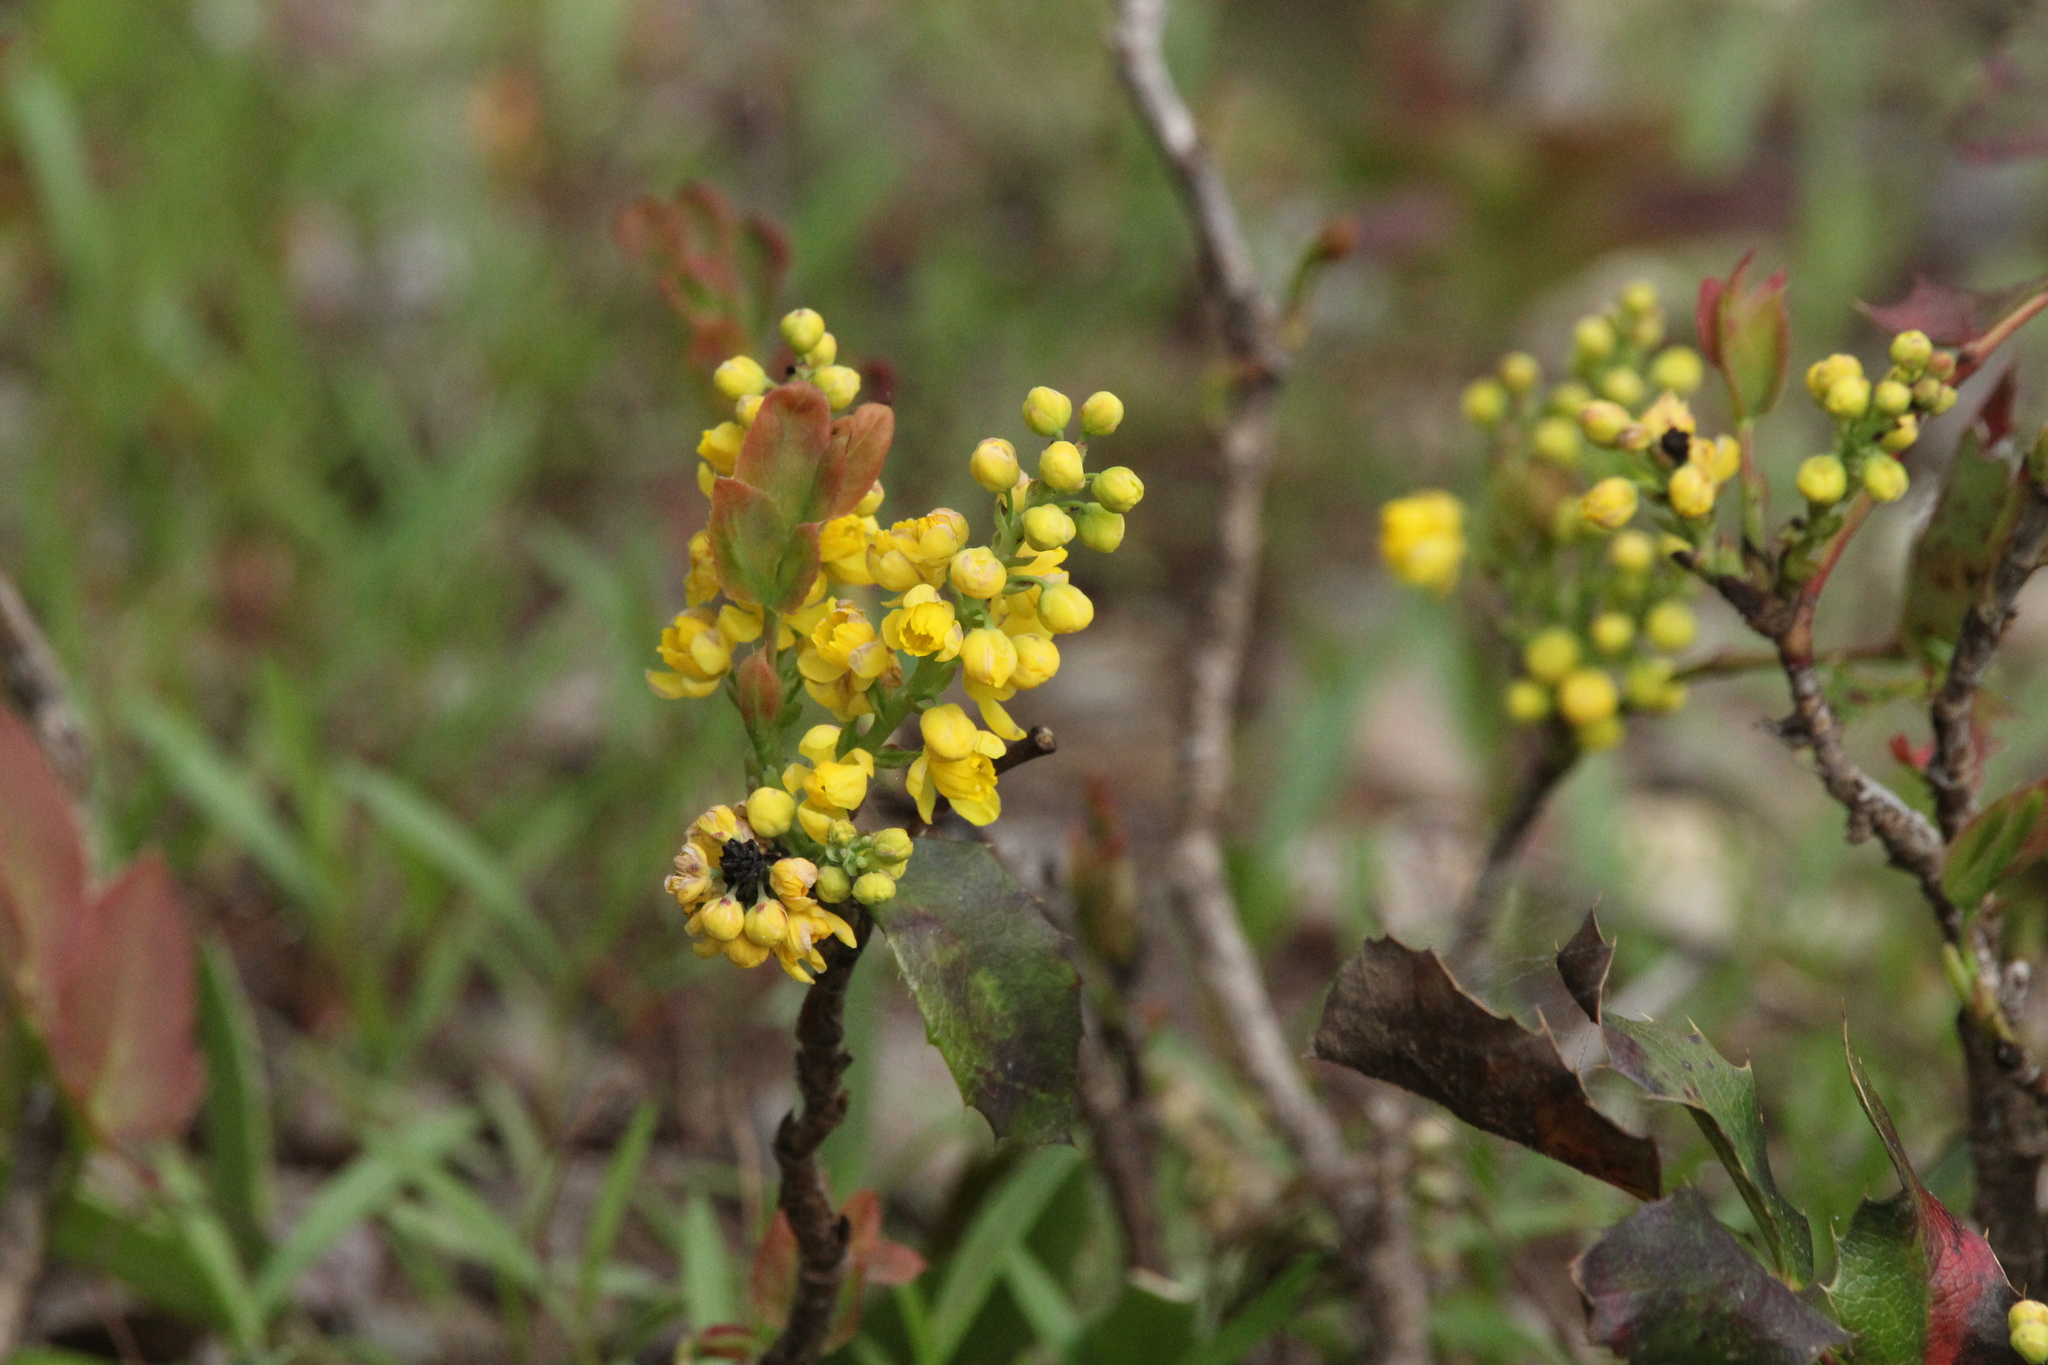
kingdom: Plantae
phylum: Tracheophyta
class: Magnoliopsida
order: Ranunculales
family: Berberidaceae
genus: Mahonia
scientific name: Mahonia repens
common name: Creeping oregon-grape
